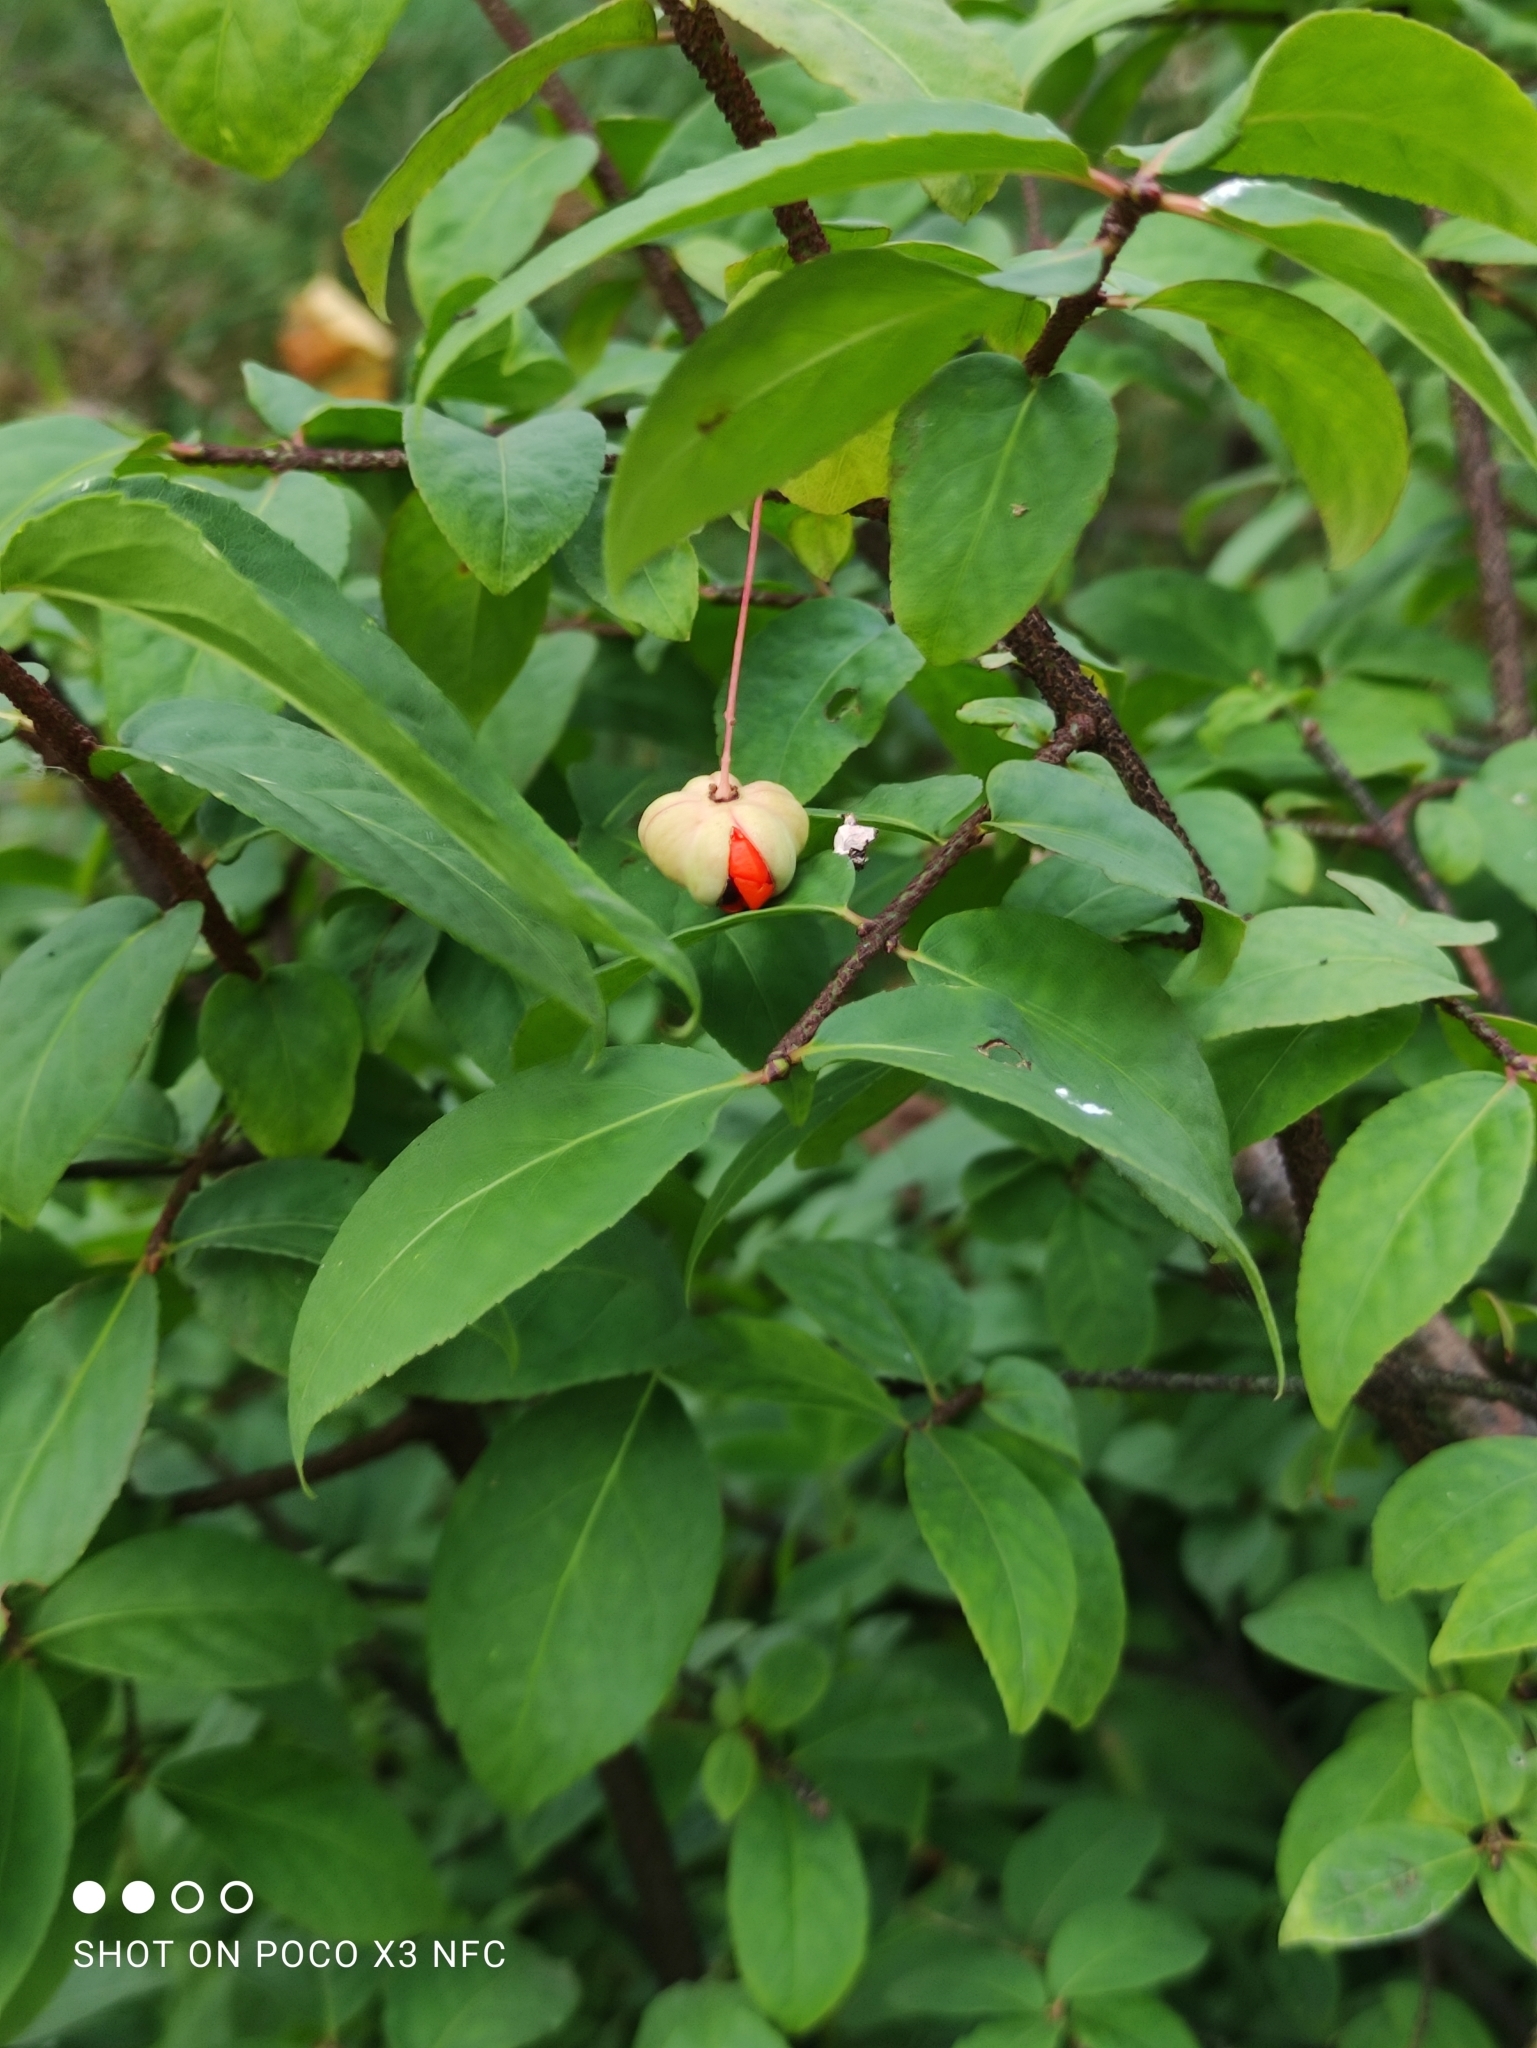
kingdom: Plantae
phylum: Tracheophyta
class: Magnoliopsida
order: Celastrales
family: Celastraceae
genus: Euonymus
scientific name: Euonymus verrucosus
